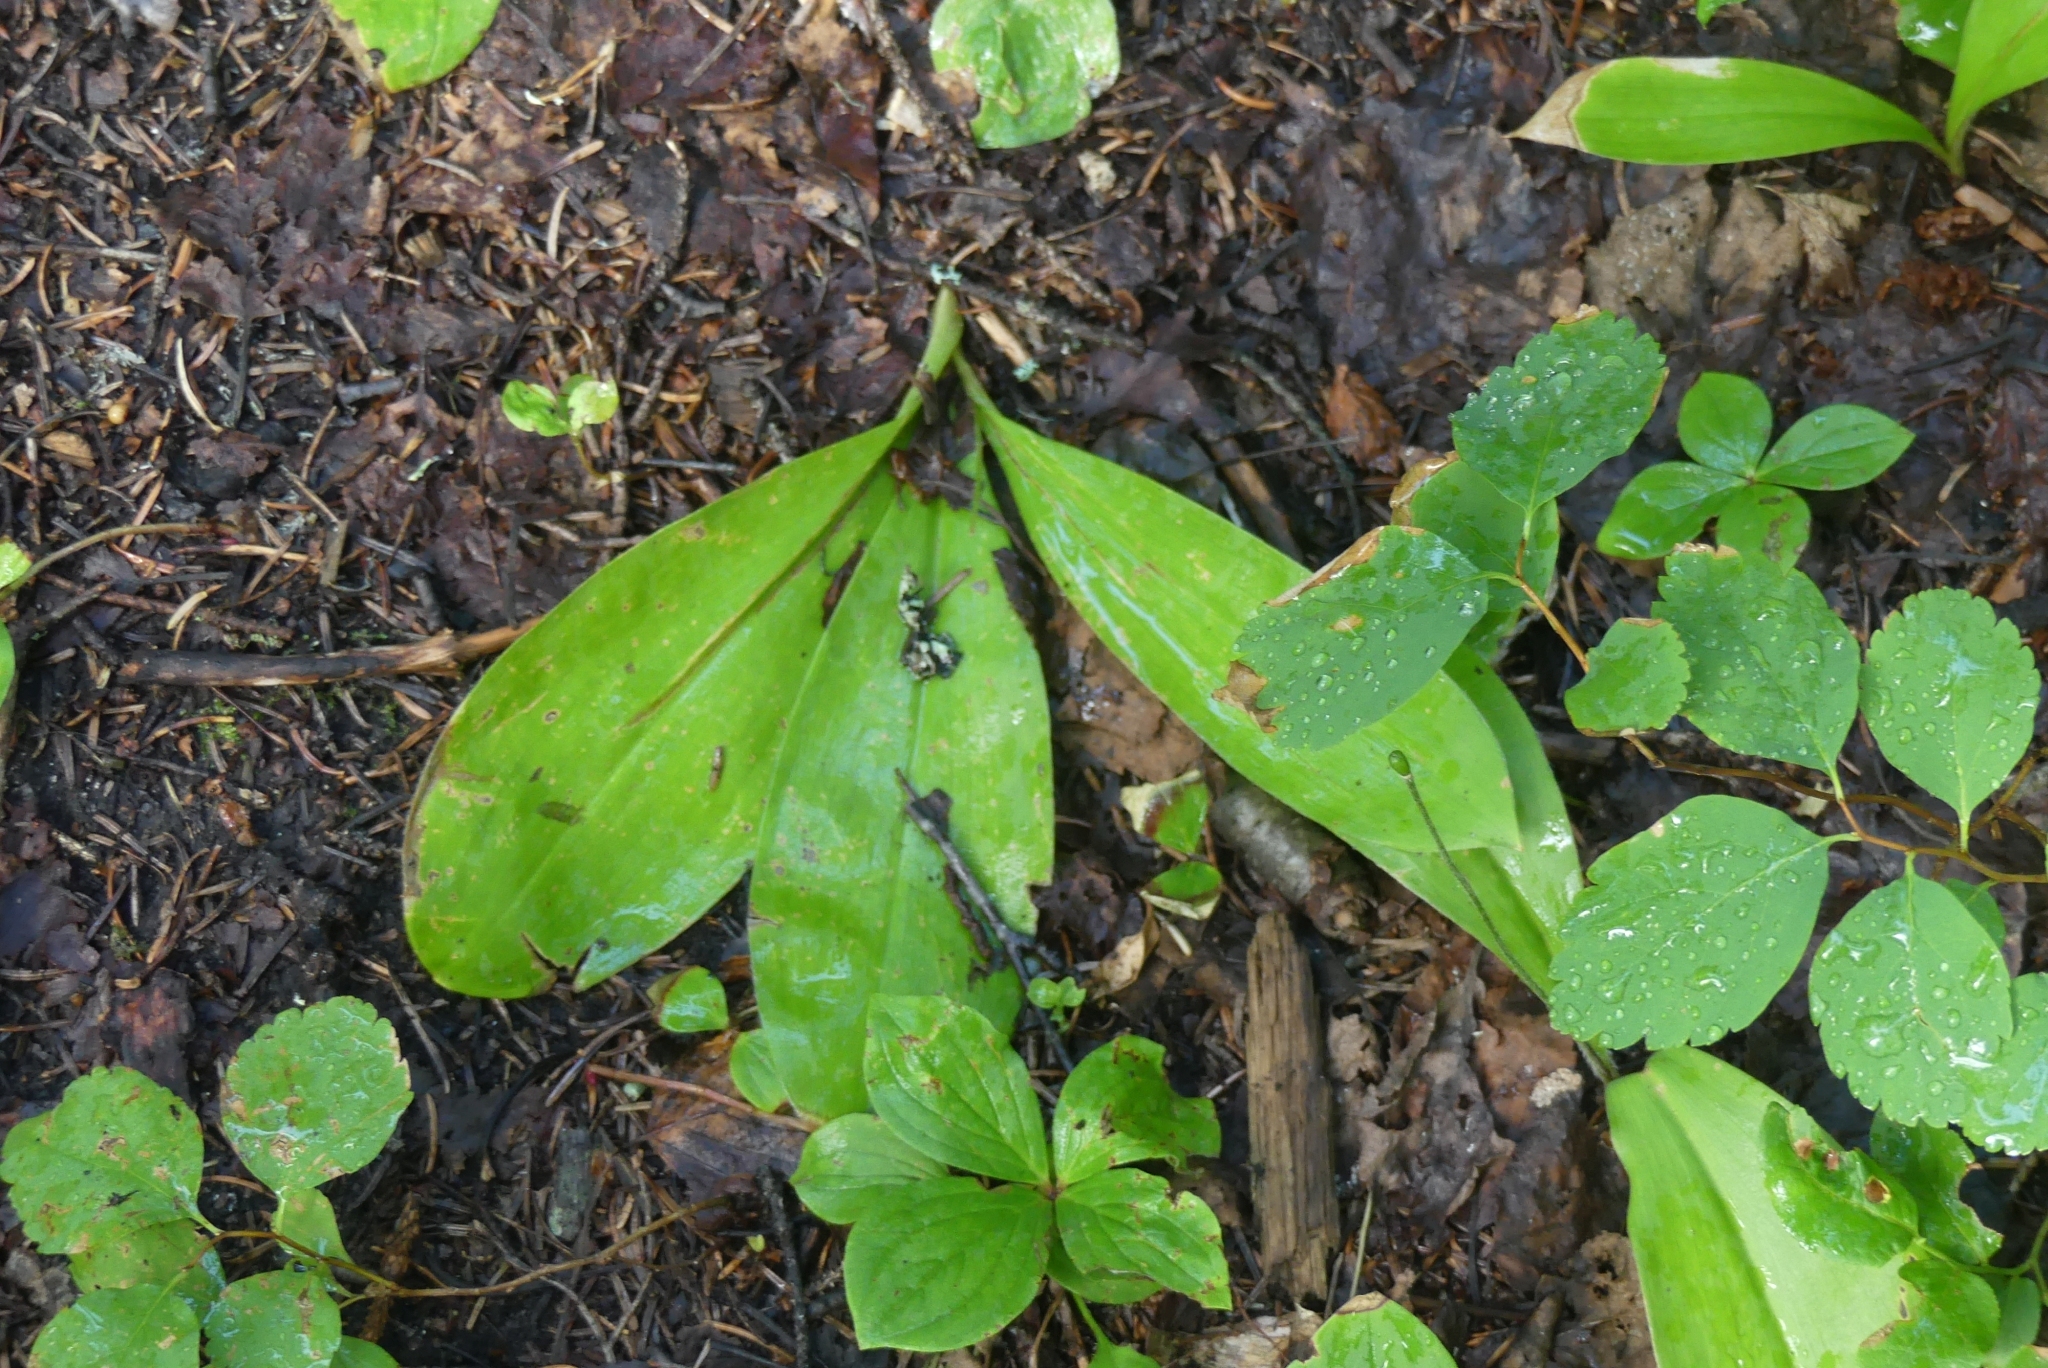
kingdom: Plantae
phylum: Tracheophyta
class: Liliopsida
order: Liliales
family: Liliaceae
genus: Clintonia
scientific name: Clintonia uniflora
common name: Queen's cup
